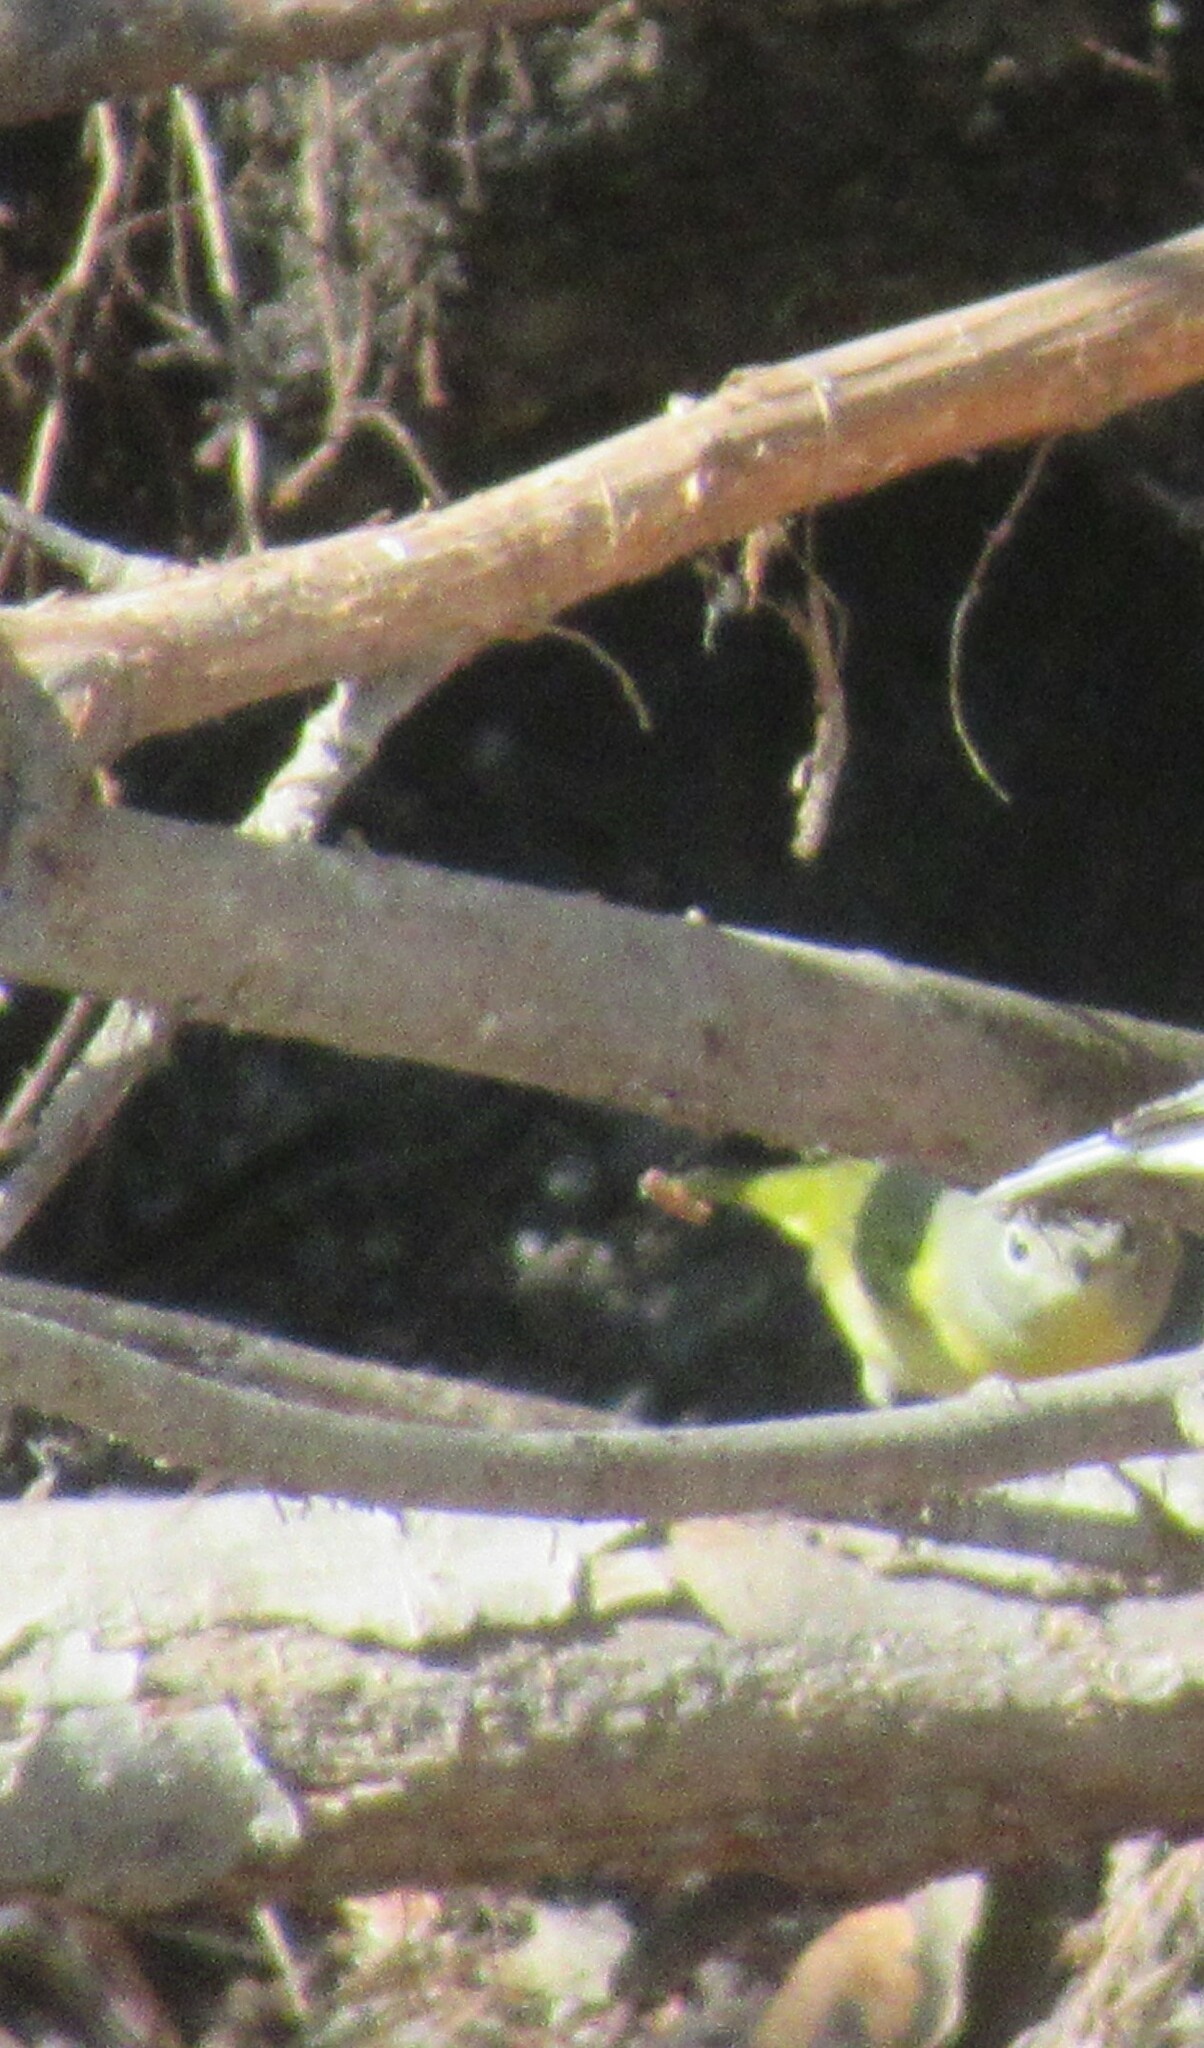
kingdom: Animalia
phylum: Chordata
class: Aves
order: Passeriformes
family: Parulidae
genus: Leiothlypis
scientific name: Leiothlypis ruficapilla
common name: Nashville warbler
